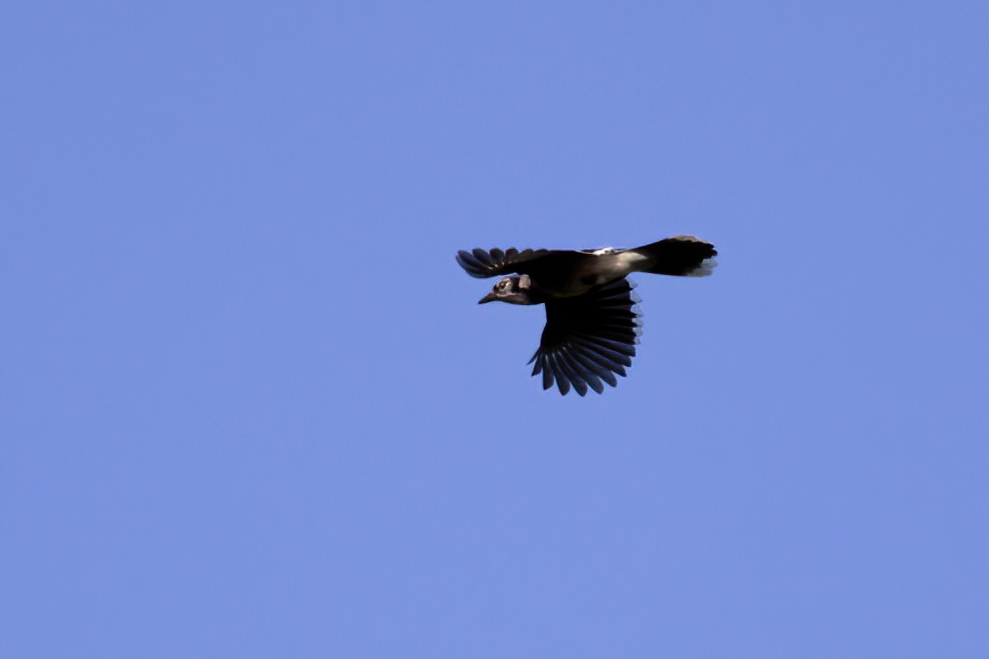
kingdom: Animalia
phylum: Chordata
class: Aves
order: Passeriformes
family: Corvidae
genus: Cyanocitta
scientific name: Cyanocitta cristata
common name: Blue jay
